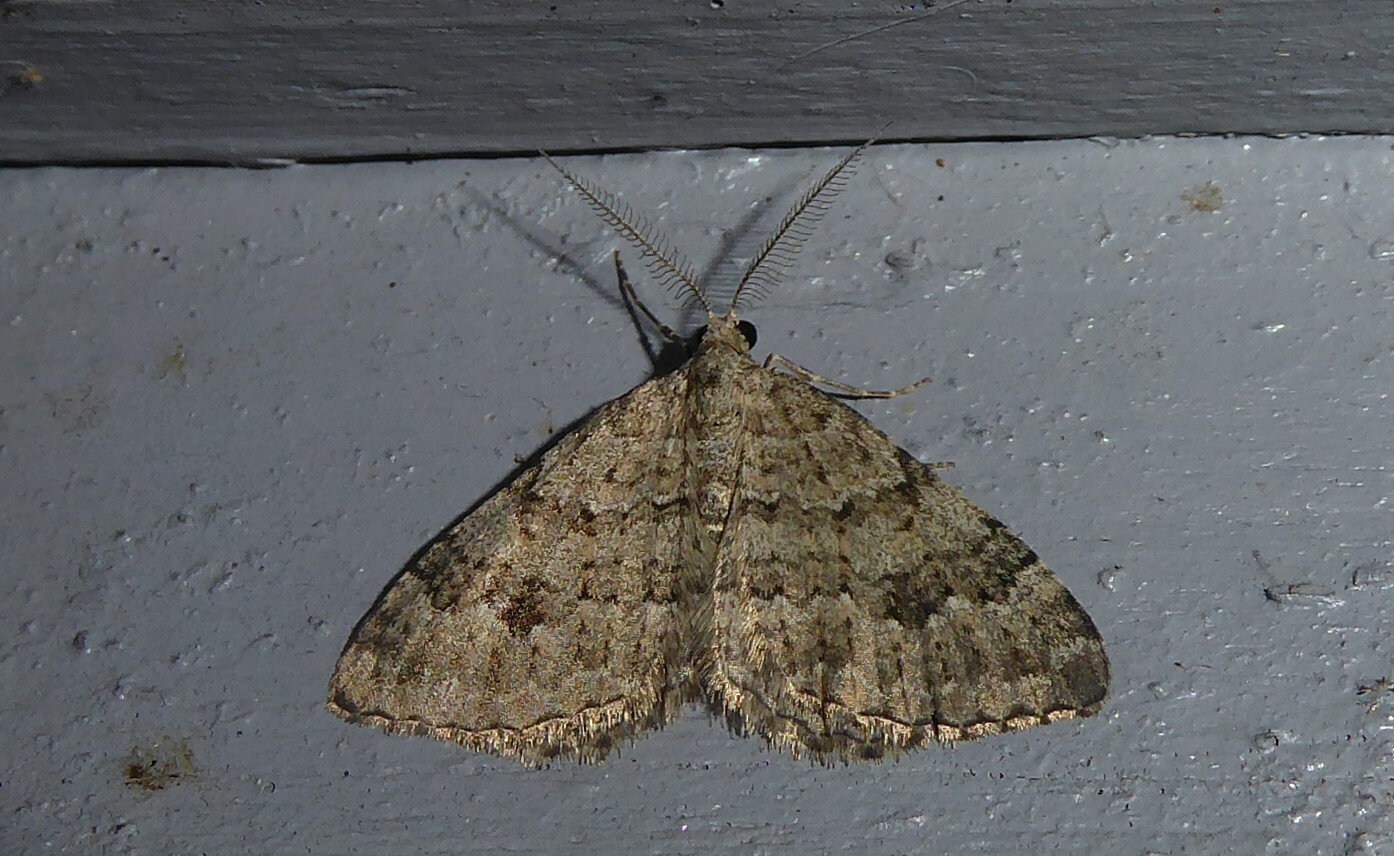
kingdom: Animalia
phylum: Arthropoda
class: Insecta
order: Lepidoptera
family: Geometridae
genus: Helastia
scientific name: Helastia corcularia
